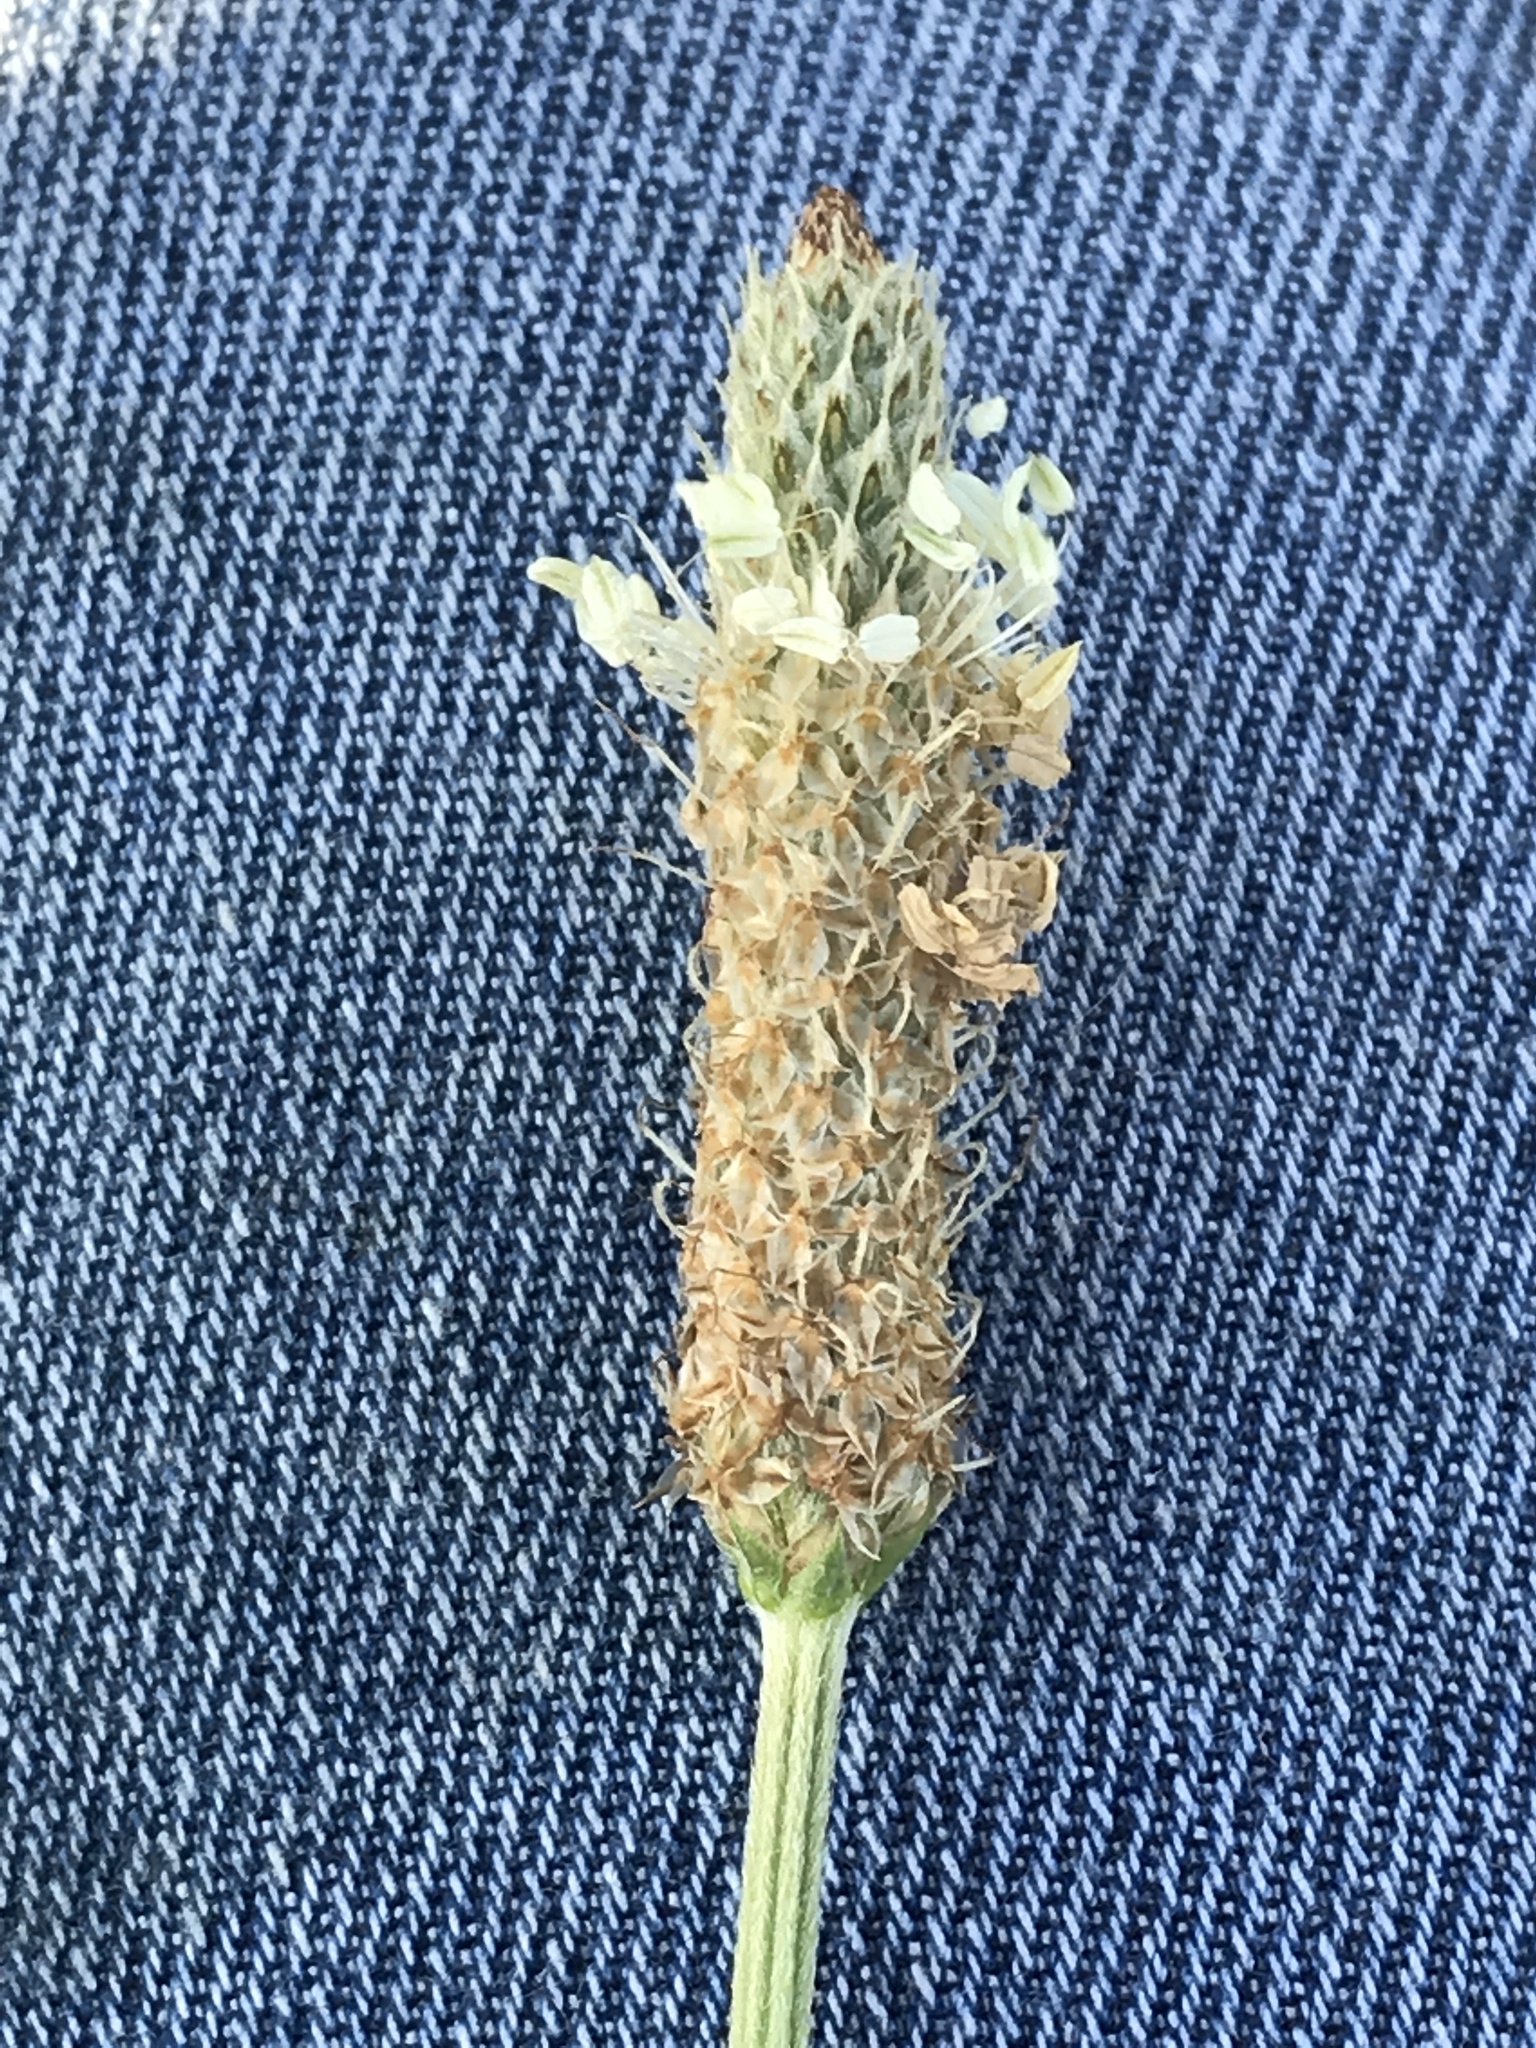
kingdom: Plantae
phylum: Tracheophyta
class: Magnoliopsida
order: Lamiales
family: Plantaginaceae
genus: Plantago
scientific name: Plantago lanceolata
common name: Ribwort plantain
